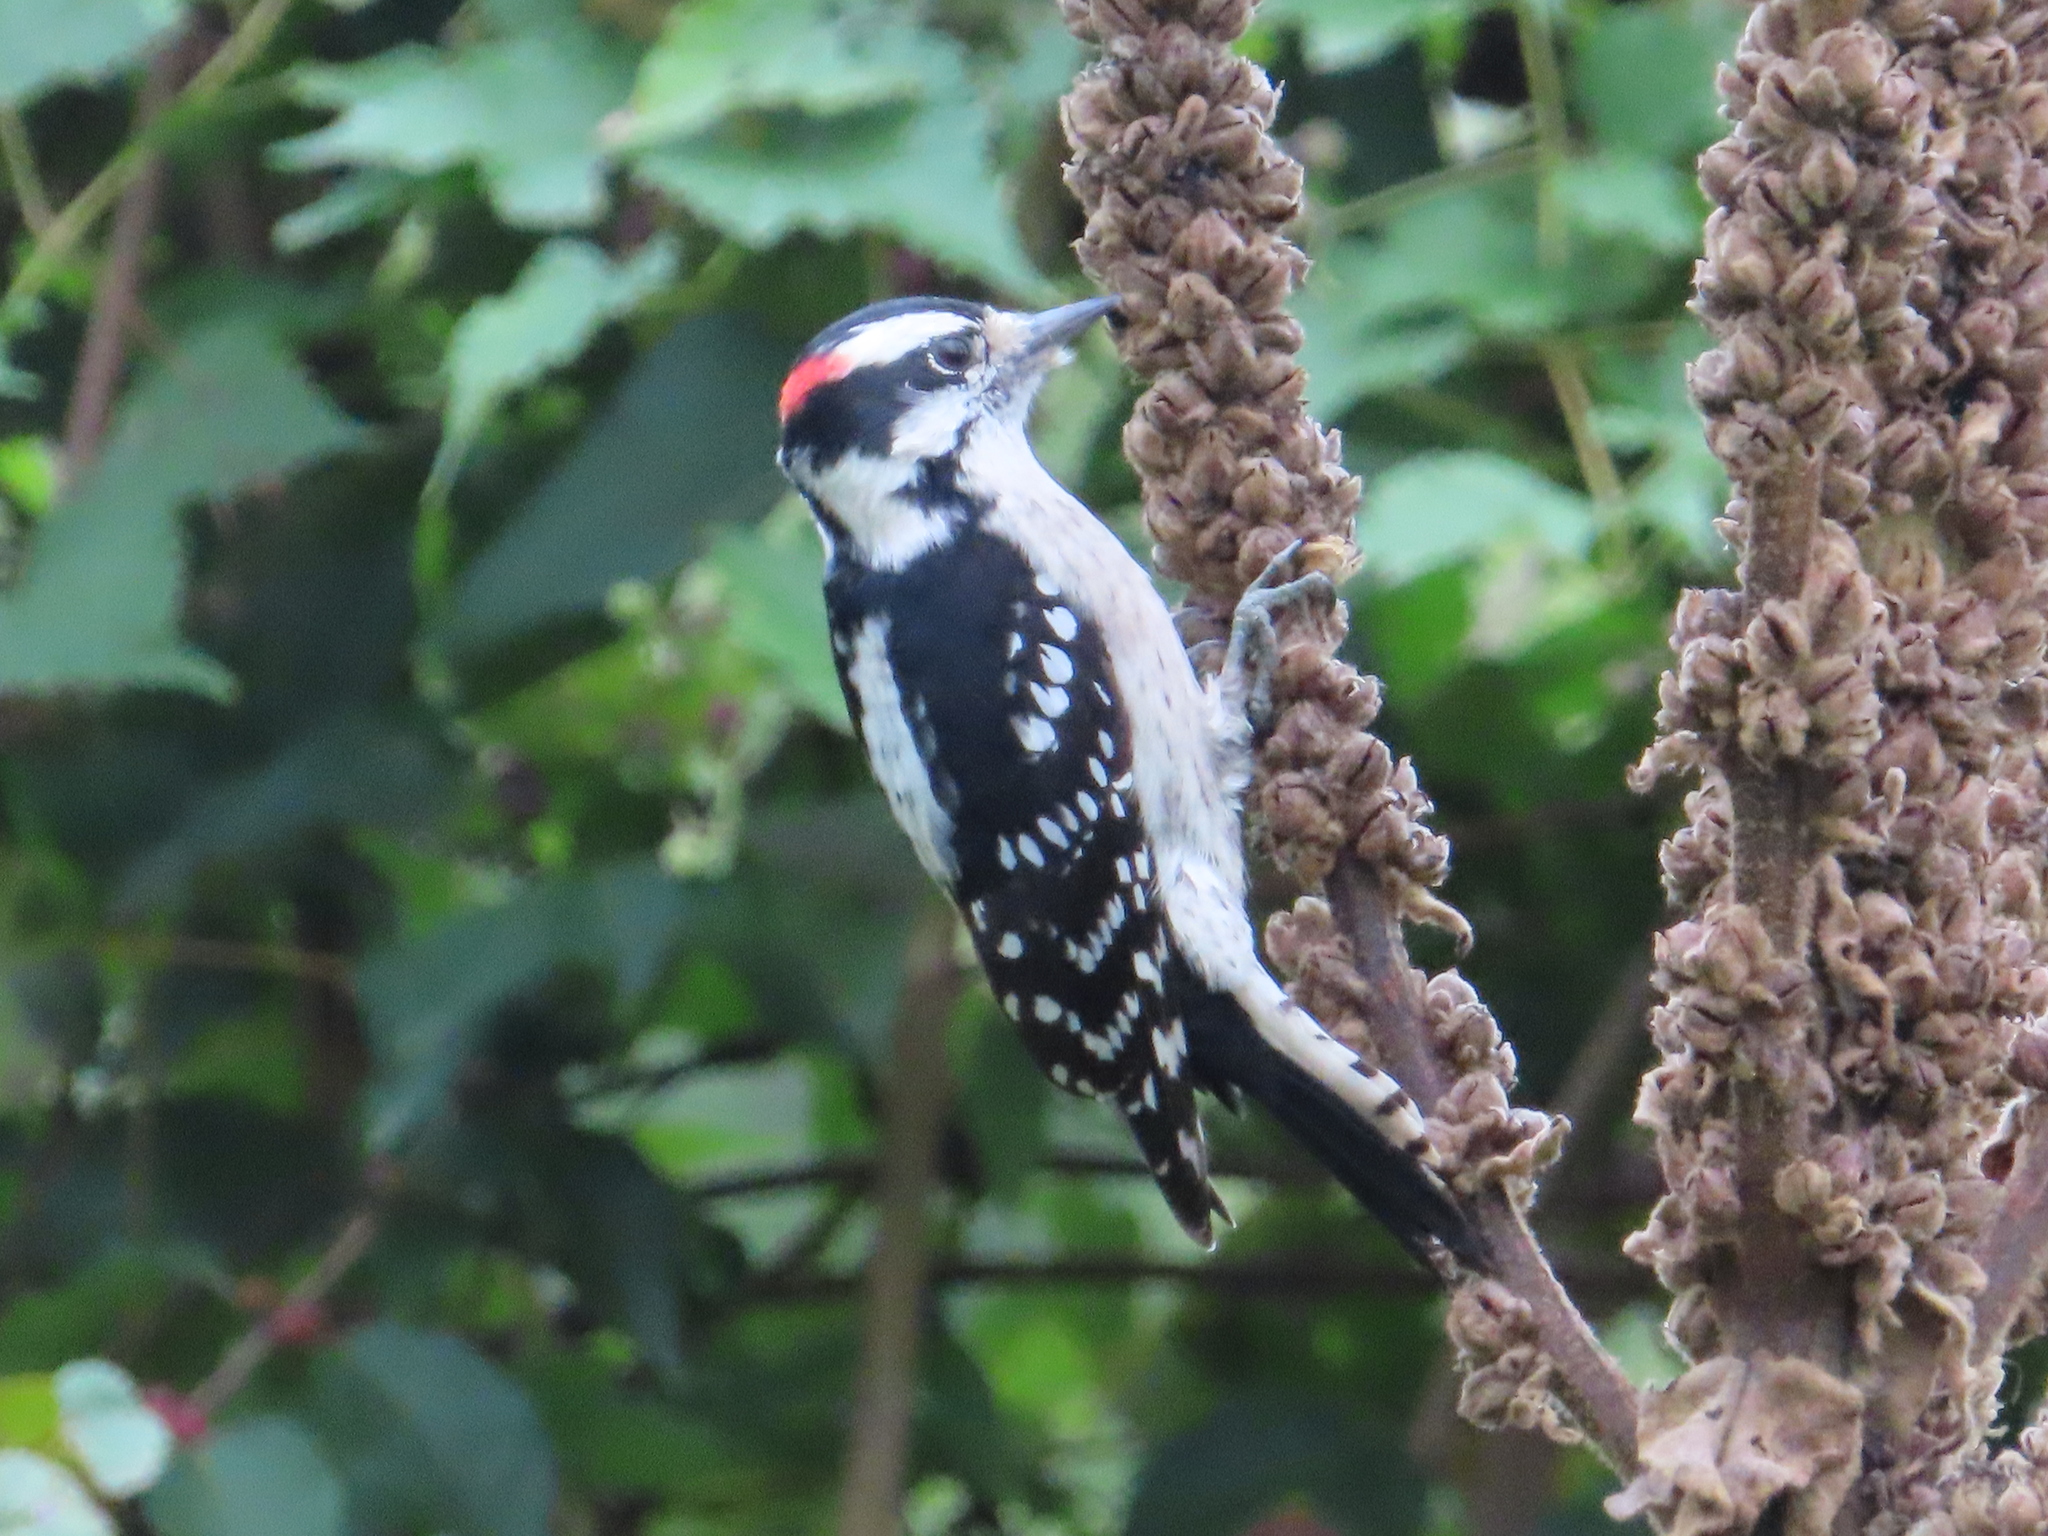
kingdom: Animalia
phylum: Chordata
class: Aves
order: Piciformes
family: Picidae
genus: Dryobates
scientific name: Dryobates pubescens
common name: Downy woodpecker
